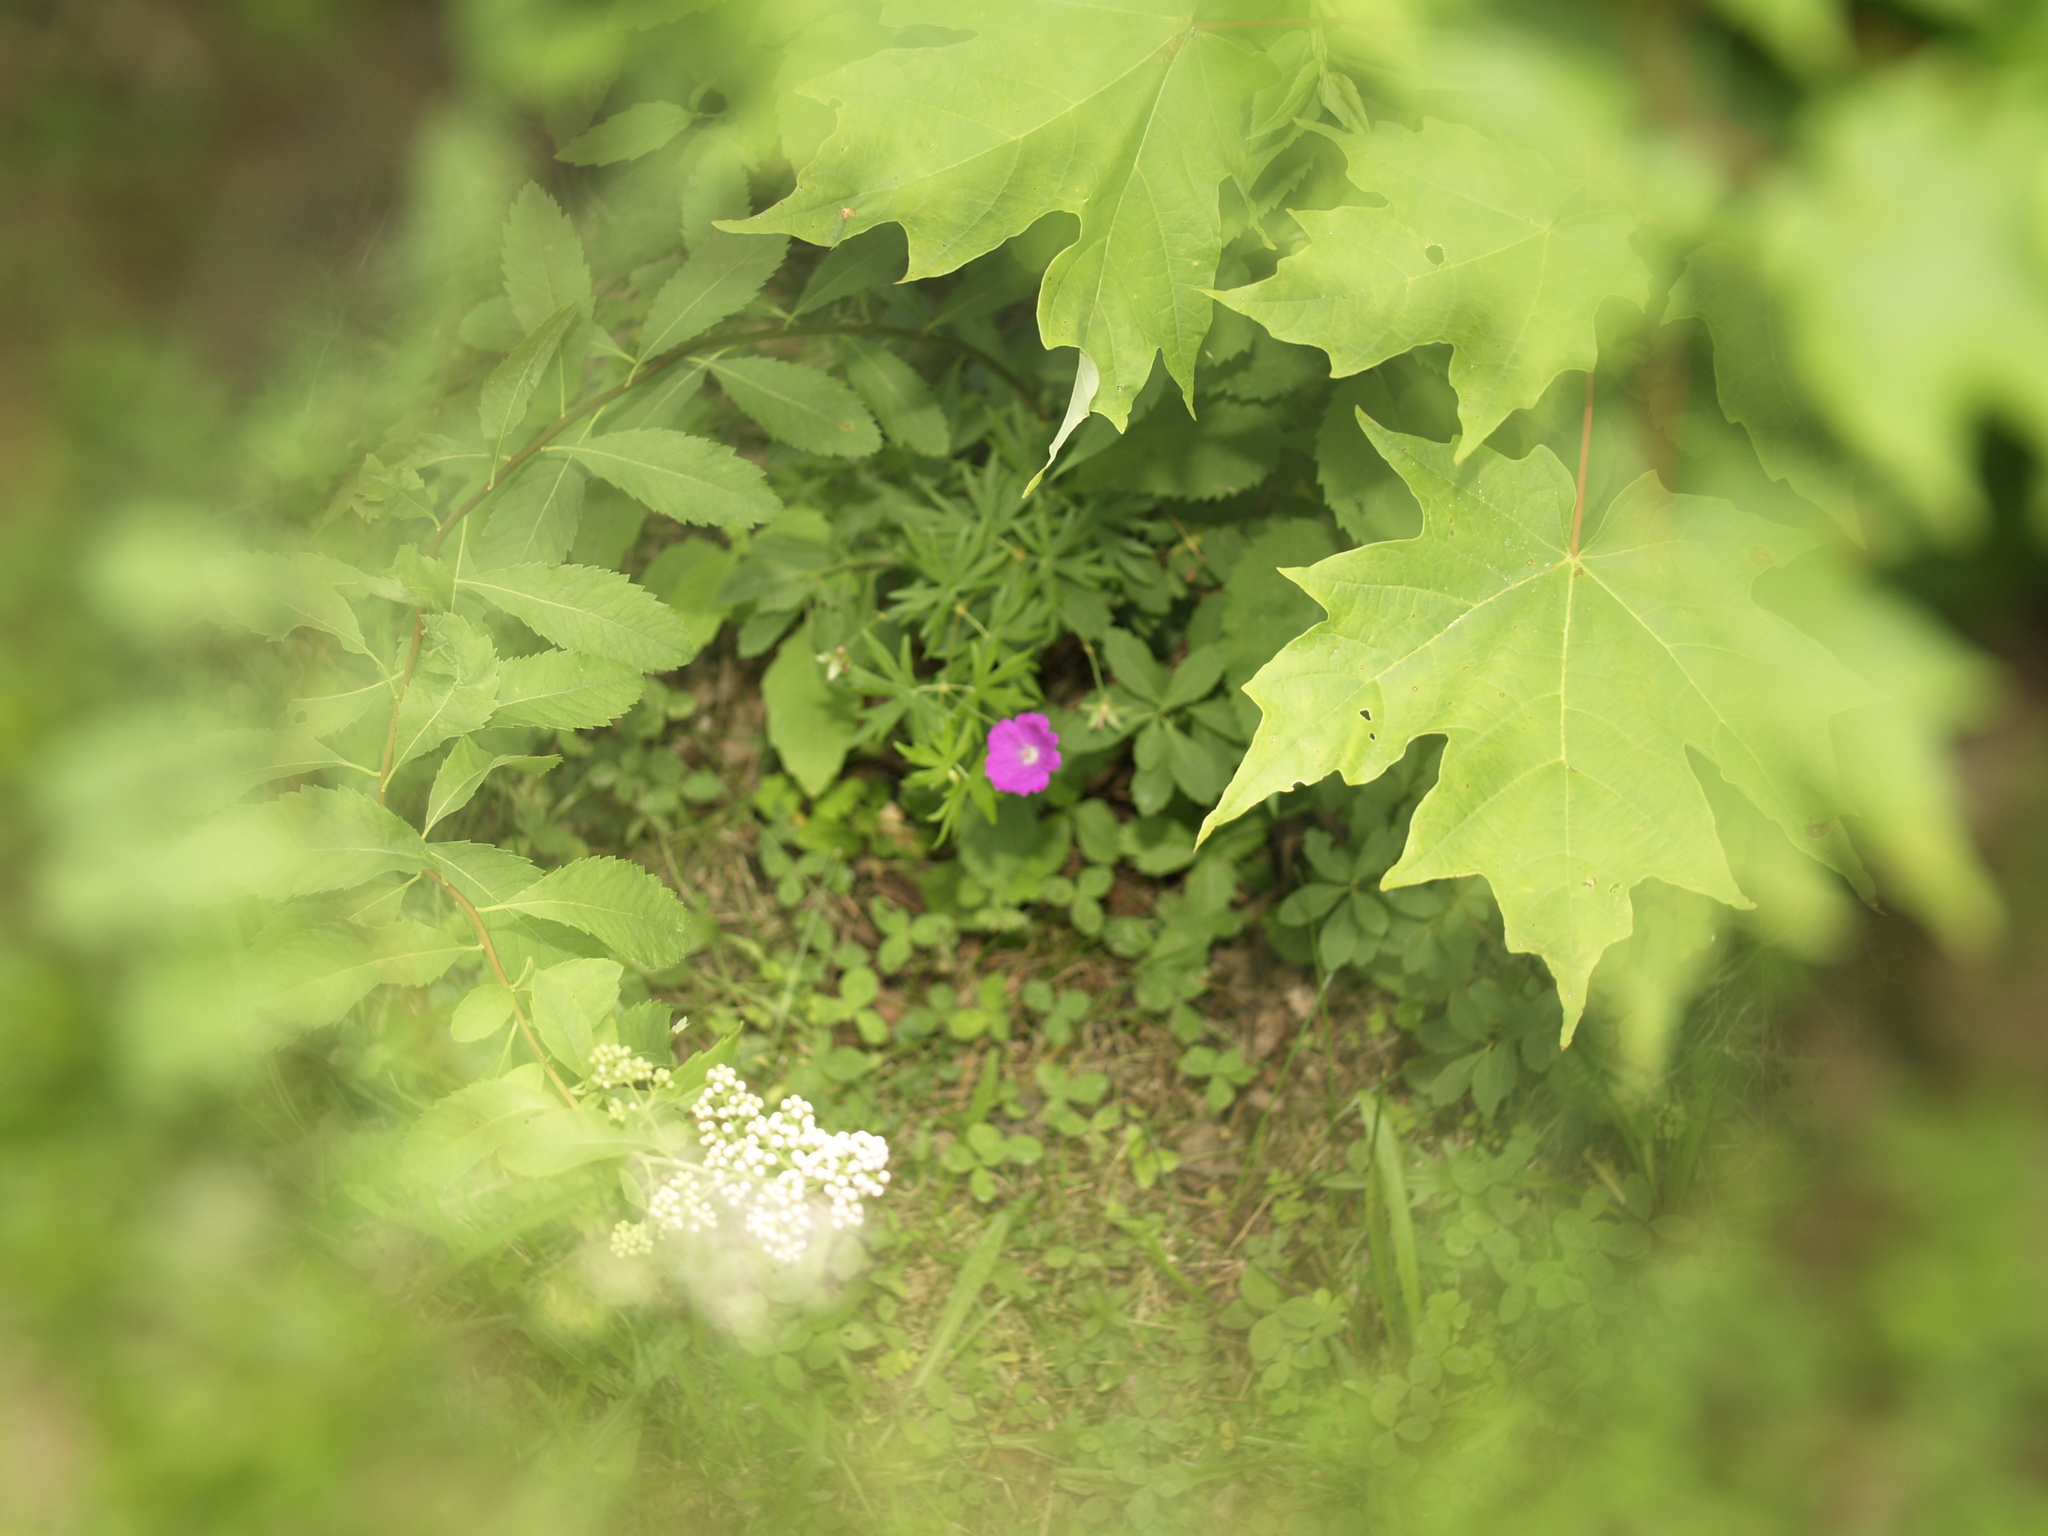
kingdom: Plantae
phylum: Tracheophyta
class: Magnoliopsida
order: Sapindales
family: Sapindaceae
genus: Acer
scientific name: Acer saccharum
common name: Sugar maple
